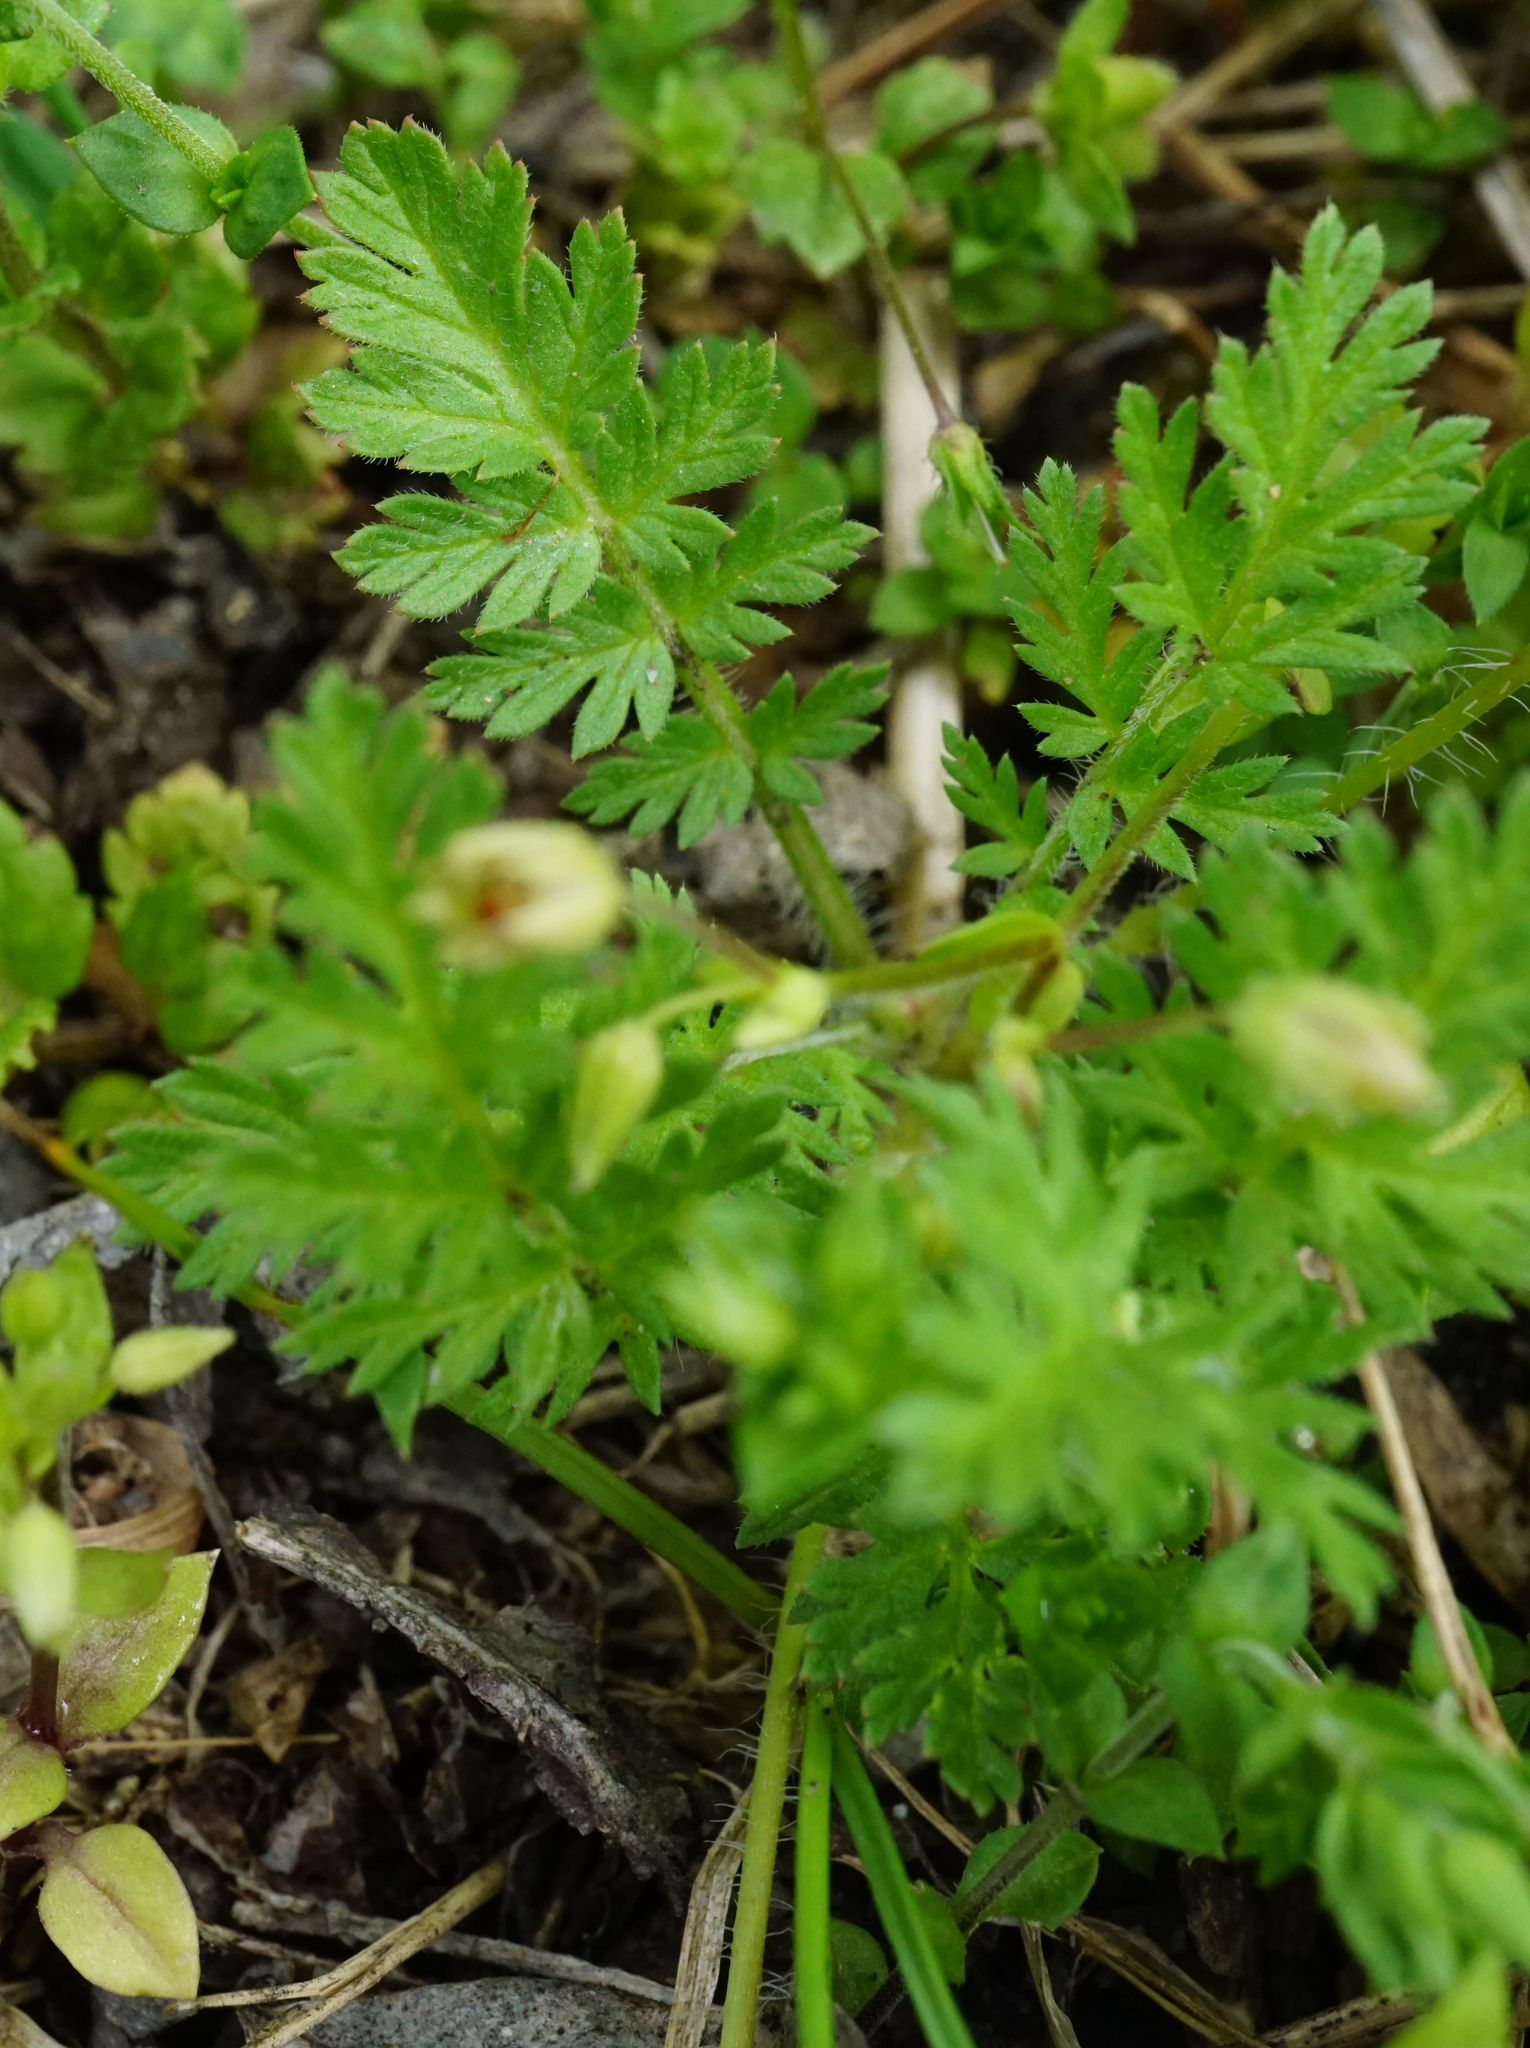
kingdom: Plantae
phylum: Tracheophyta
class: Magnoliopsida
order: Geraniales
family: Geraniaceae
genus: Erodium
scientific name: Erodium cicutarium
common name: Common stork's-bill
